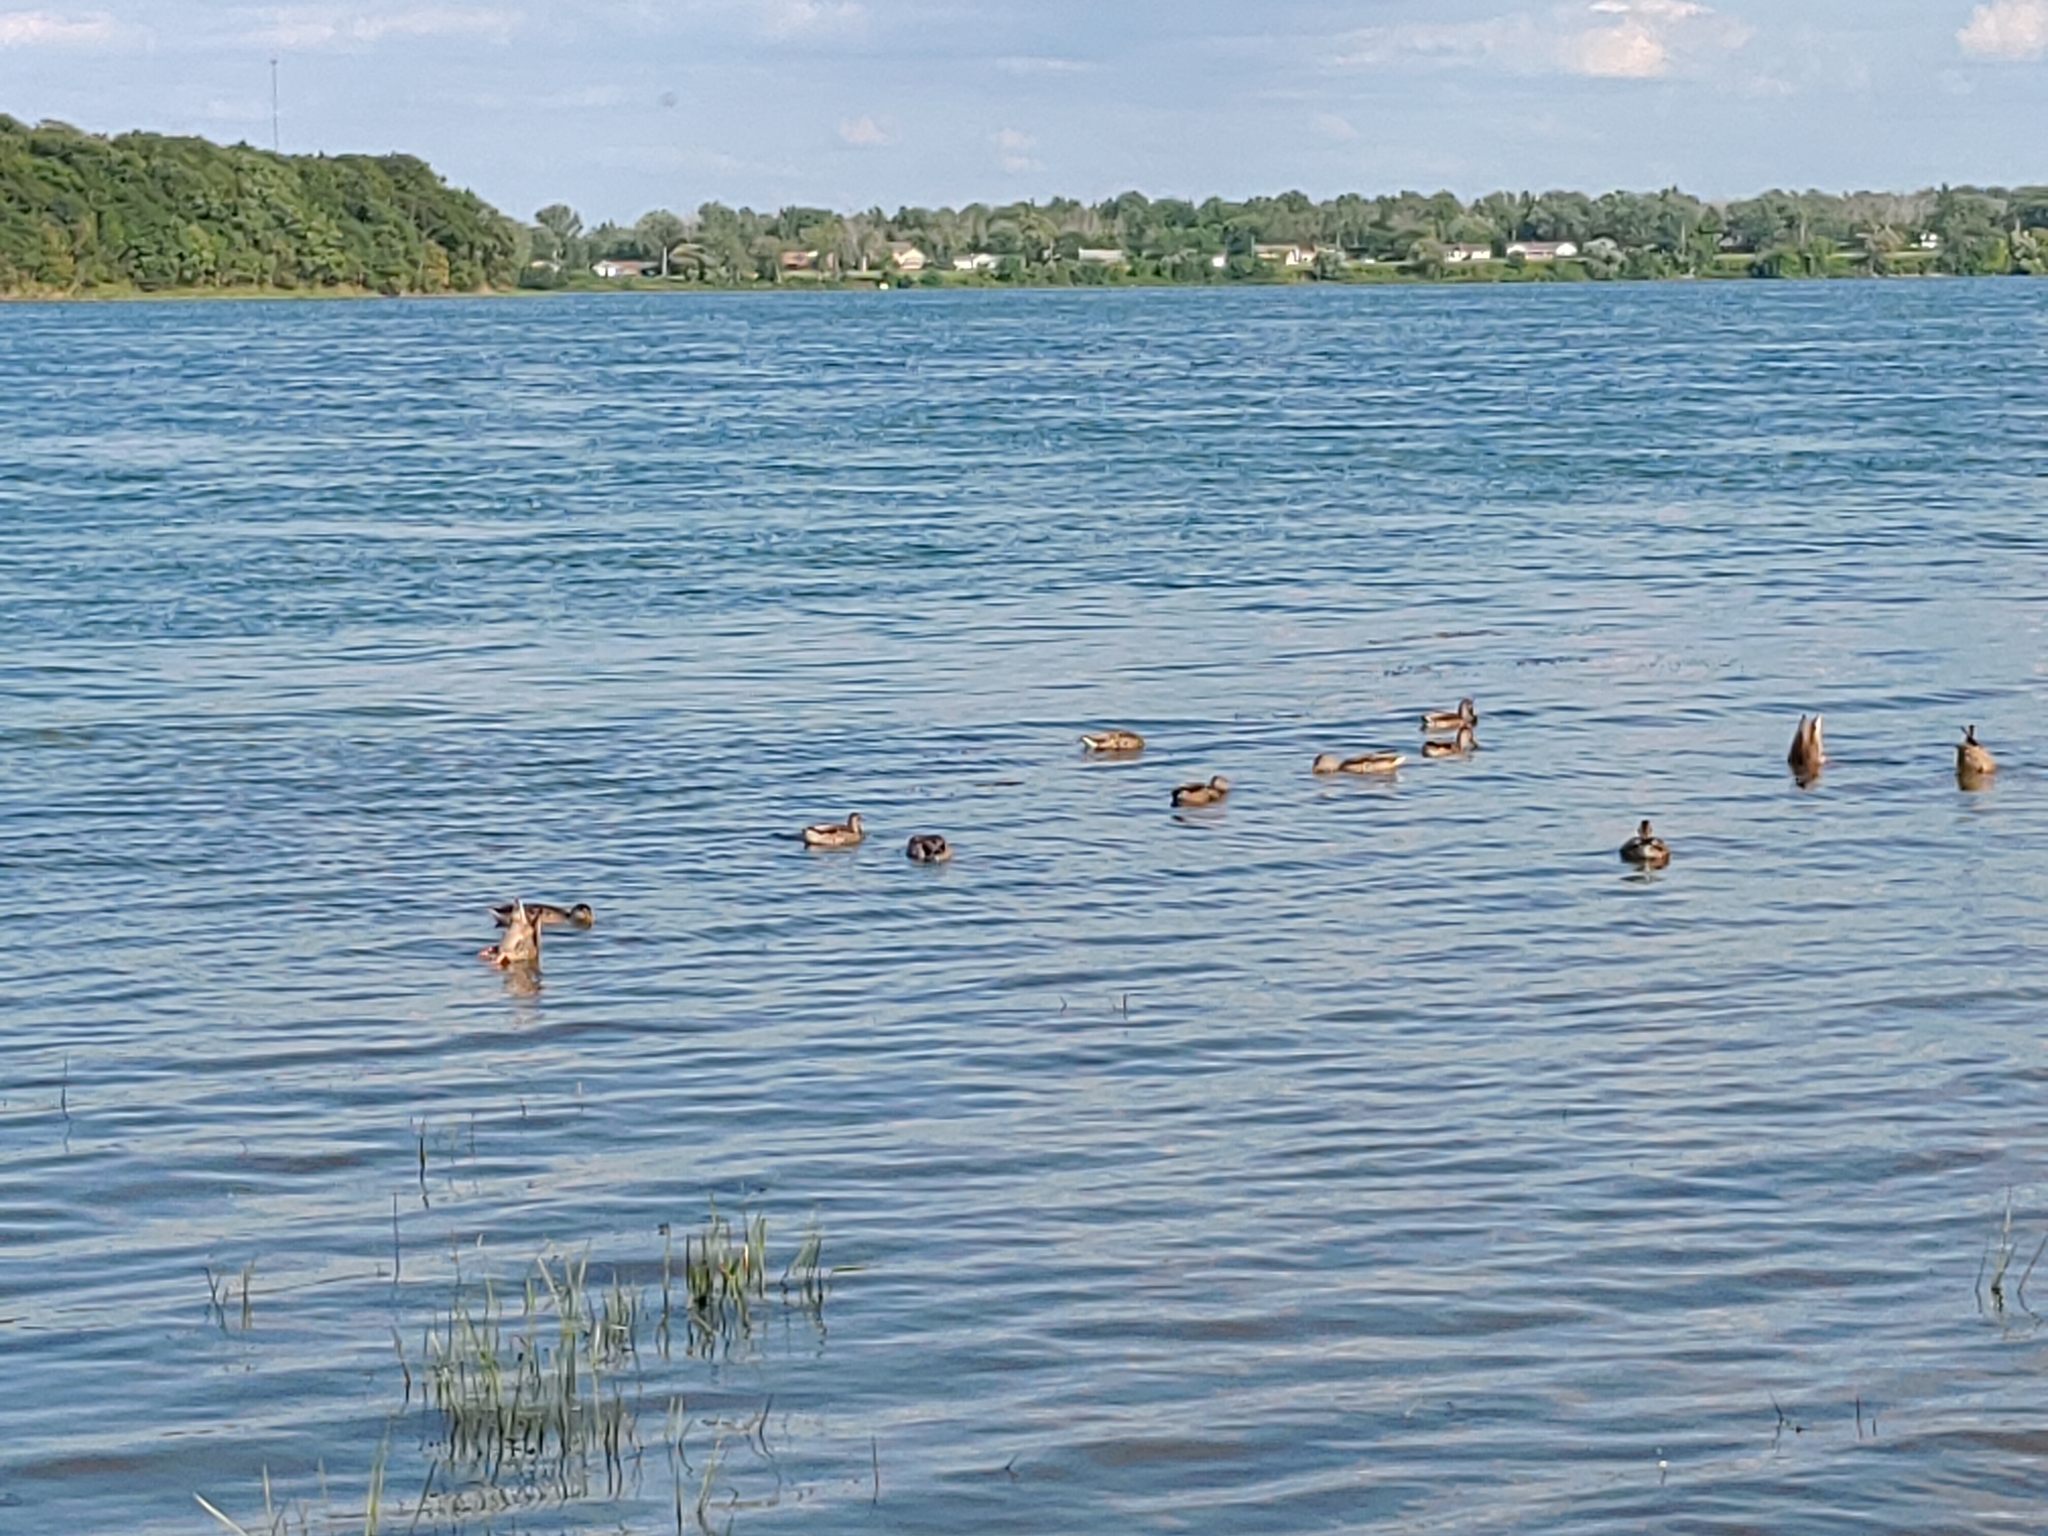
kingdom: Animalia
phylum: Chordata
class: Aves
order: Anseriformes
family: Anatidae
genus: Anas
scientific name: Anas platyrhynchos
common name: Mallard
